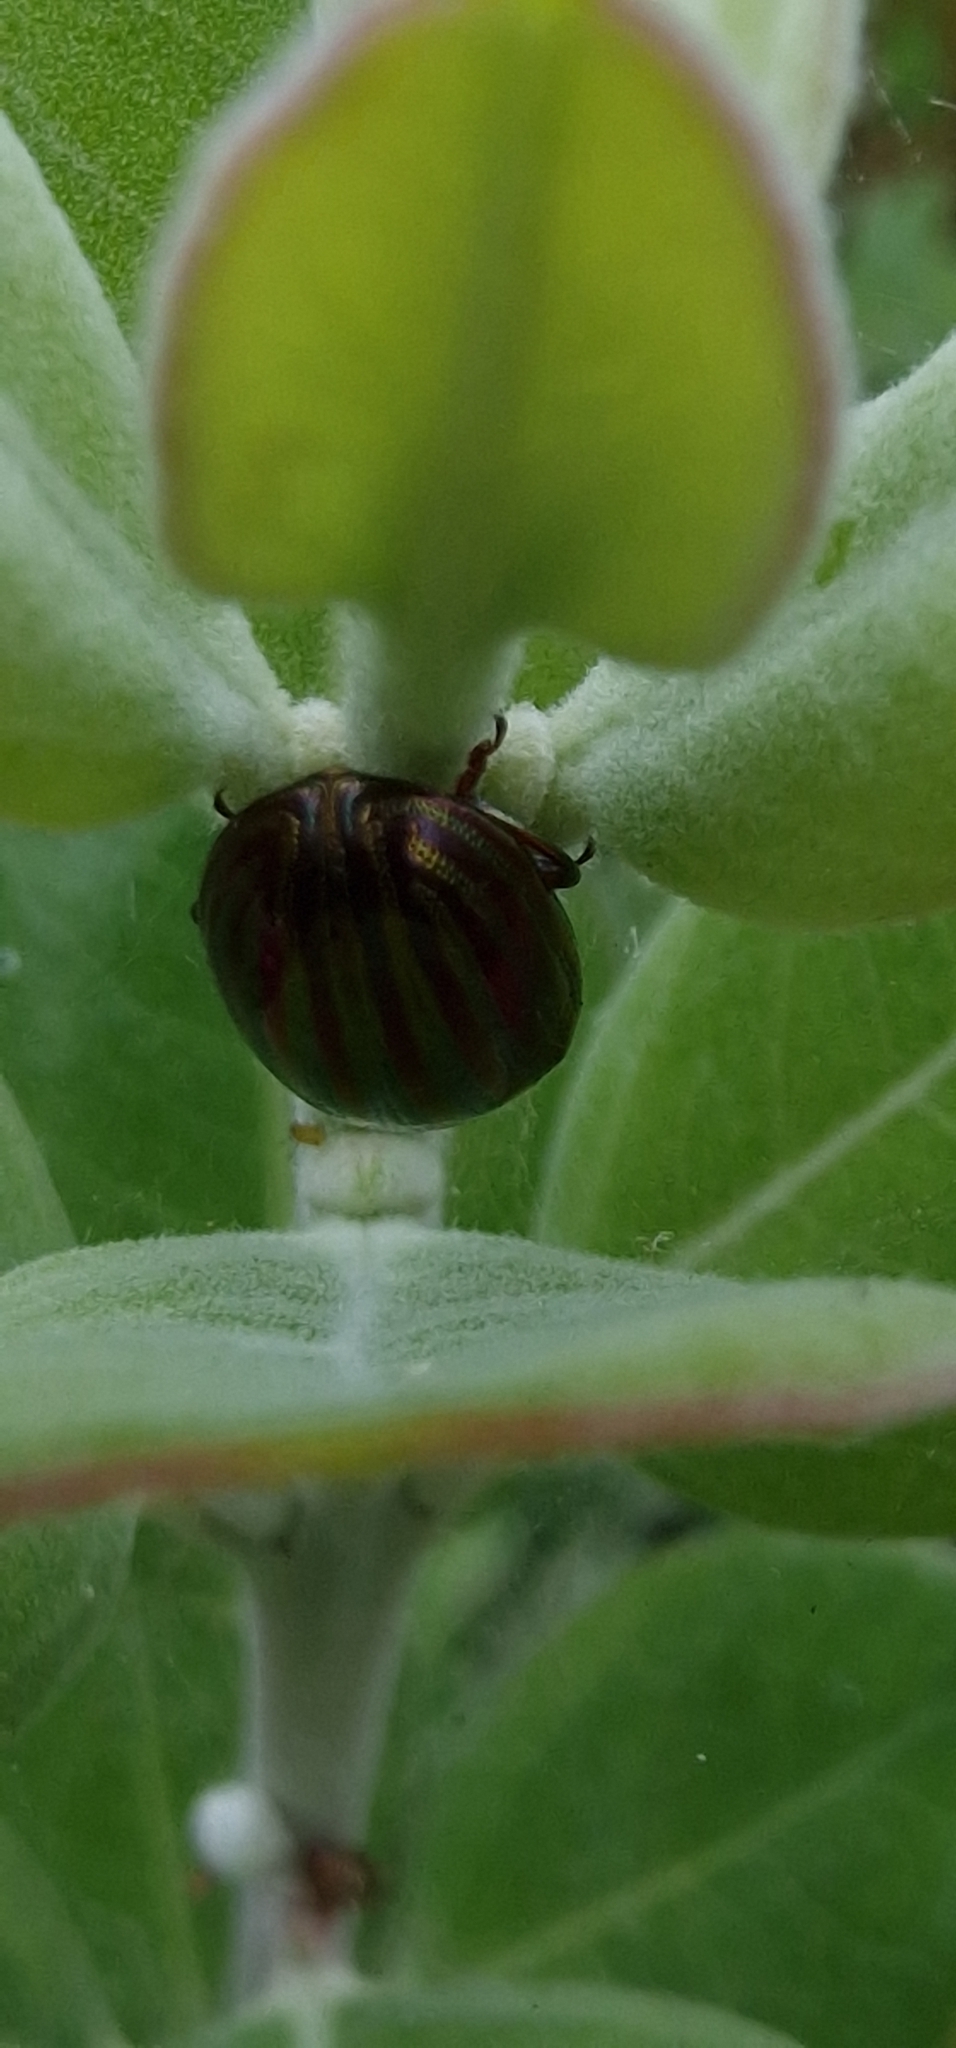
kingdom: Animalia
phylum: Arthropoda
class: Insecta
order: Coleoptera
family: Chrysomelidae
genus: Chrysolina
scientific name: Chrysolina americana
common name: Rosemary beetle
